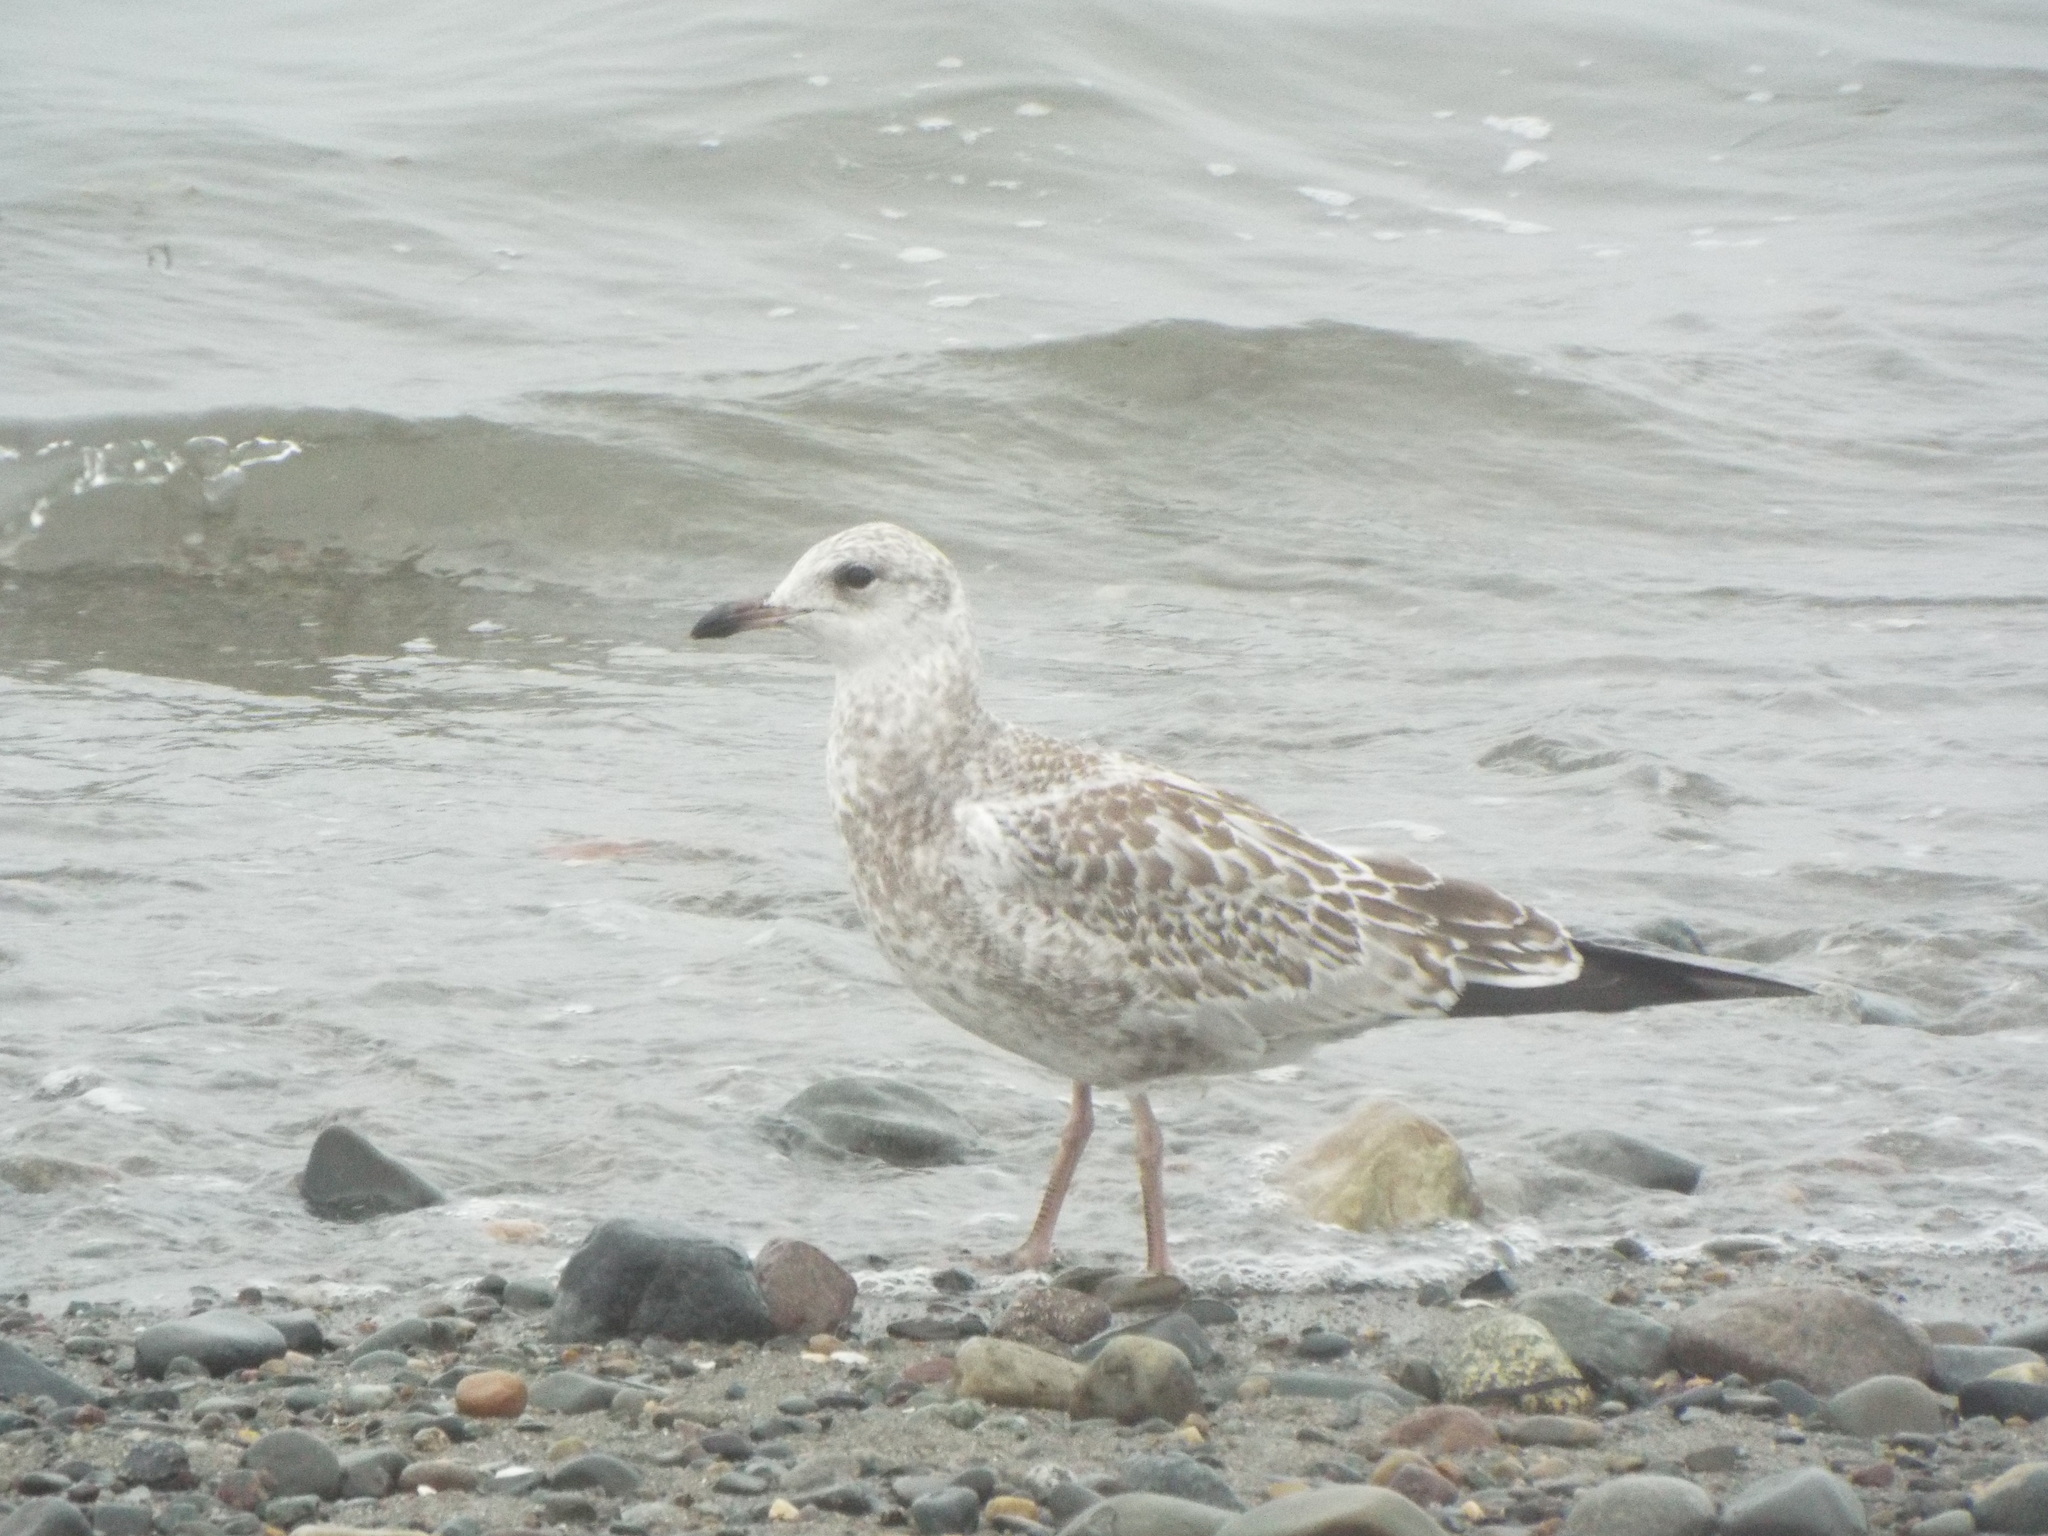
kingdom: Animalia
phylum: Chordata
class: Aves
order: Charadriiformes
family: Laridae
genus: Larus
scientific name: Larus delawarensis
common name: Ring-billed gull
